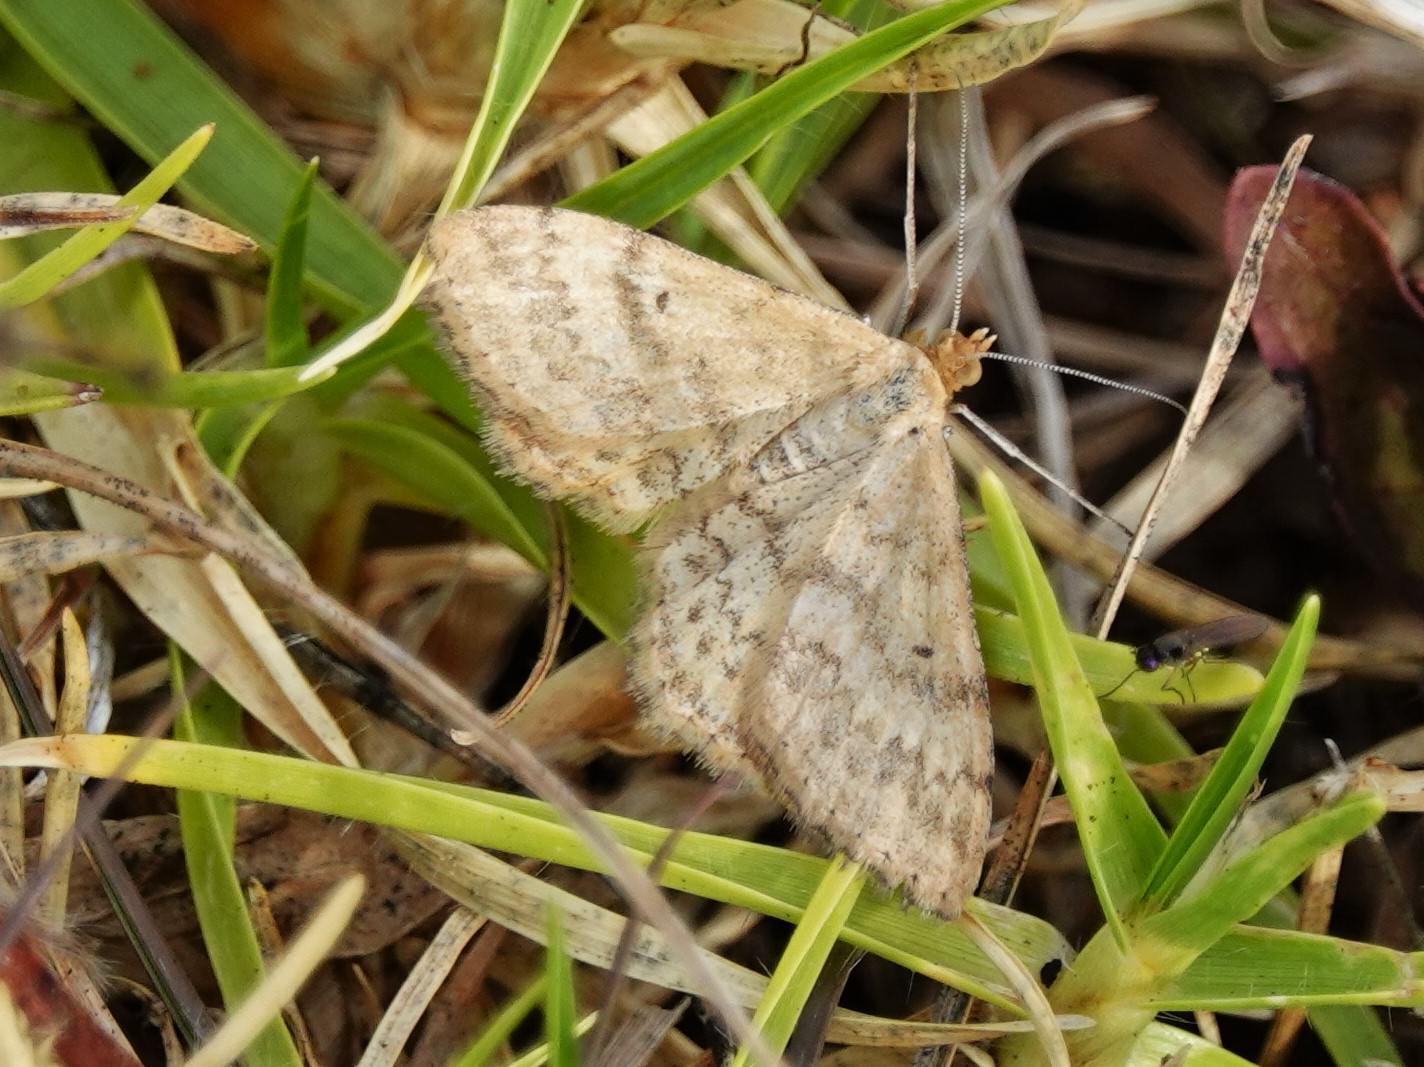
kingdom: Animalia
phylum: Arthropoda
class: Insecta
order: Lepidoptera
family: Geometridae
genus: Scopula
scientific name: Scopula rubraria
